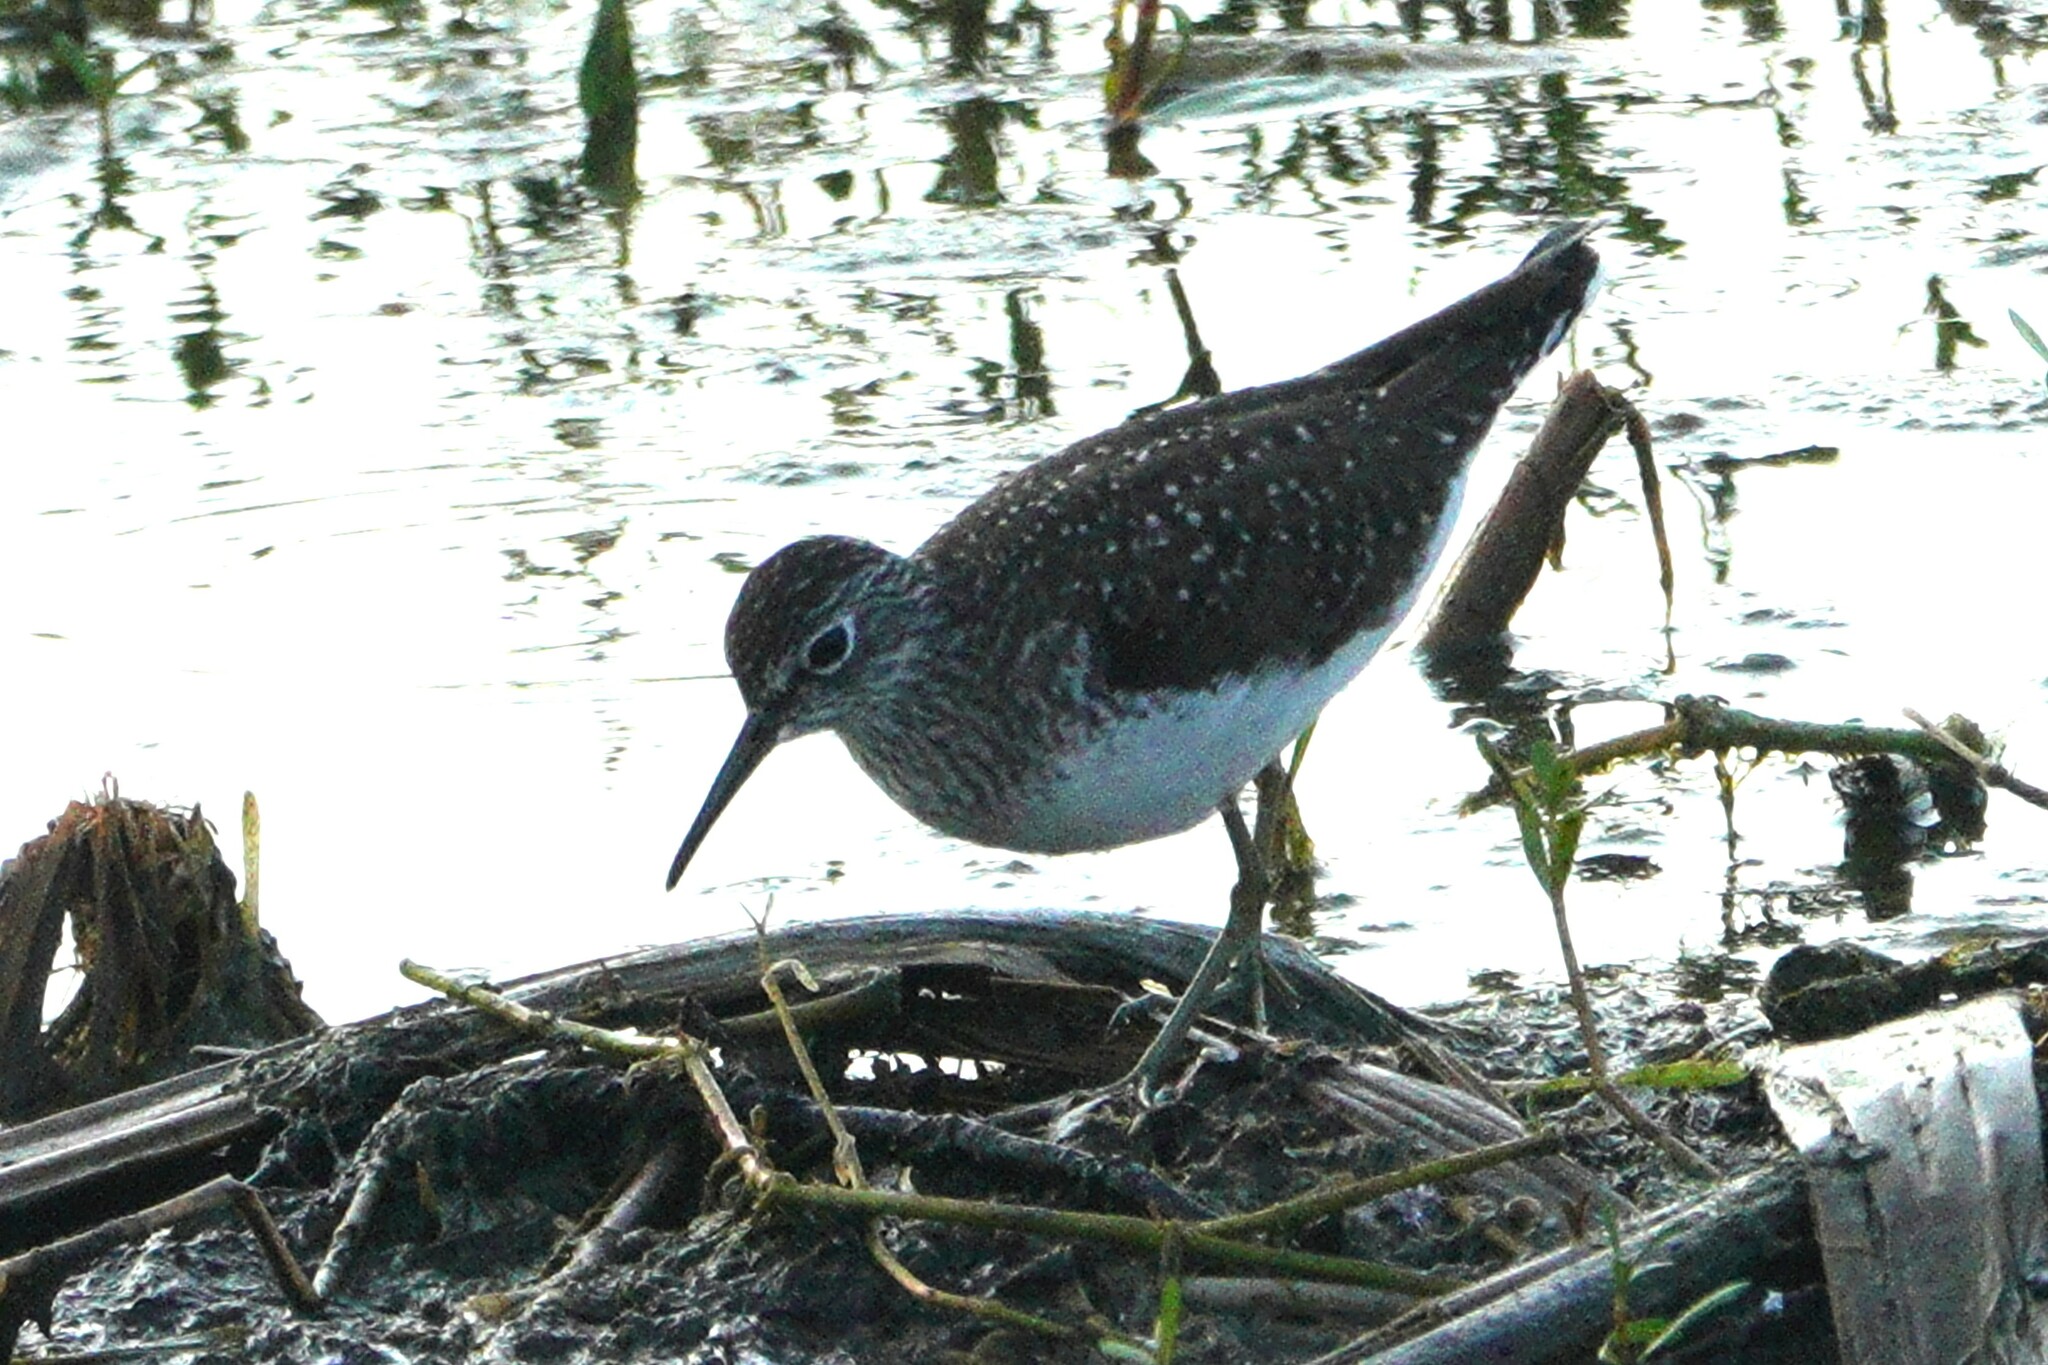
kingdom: Animalia
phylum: Chordata
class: Aves
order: Charadriiformes
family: Scolopacidae
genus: Tringa
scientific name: Tringa solitaria
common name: Solitary sandpiper
